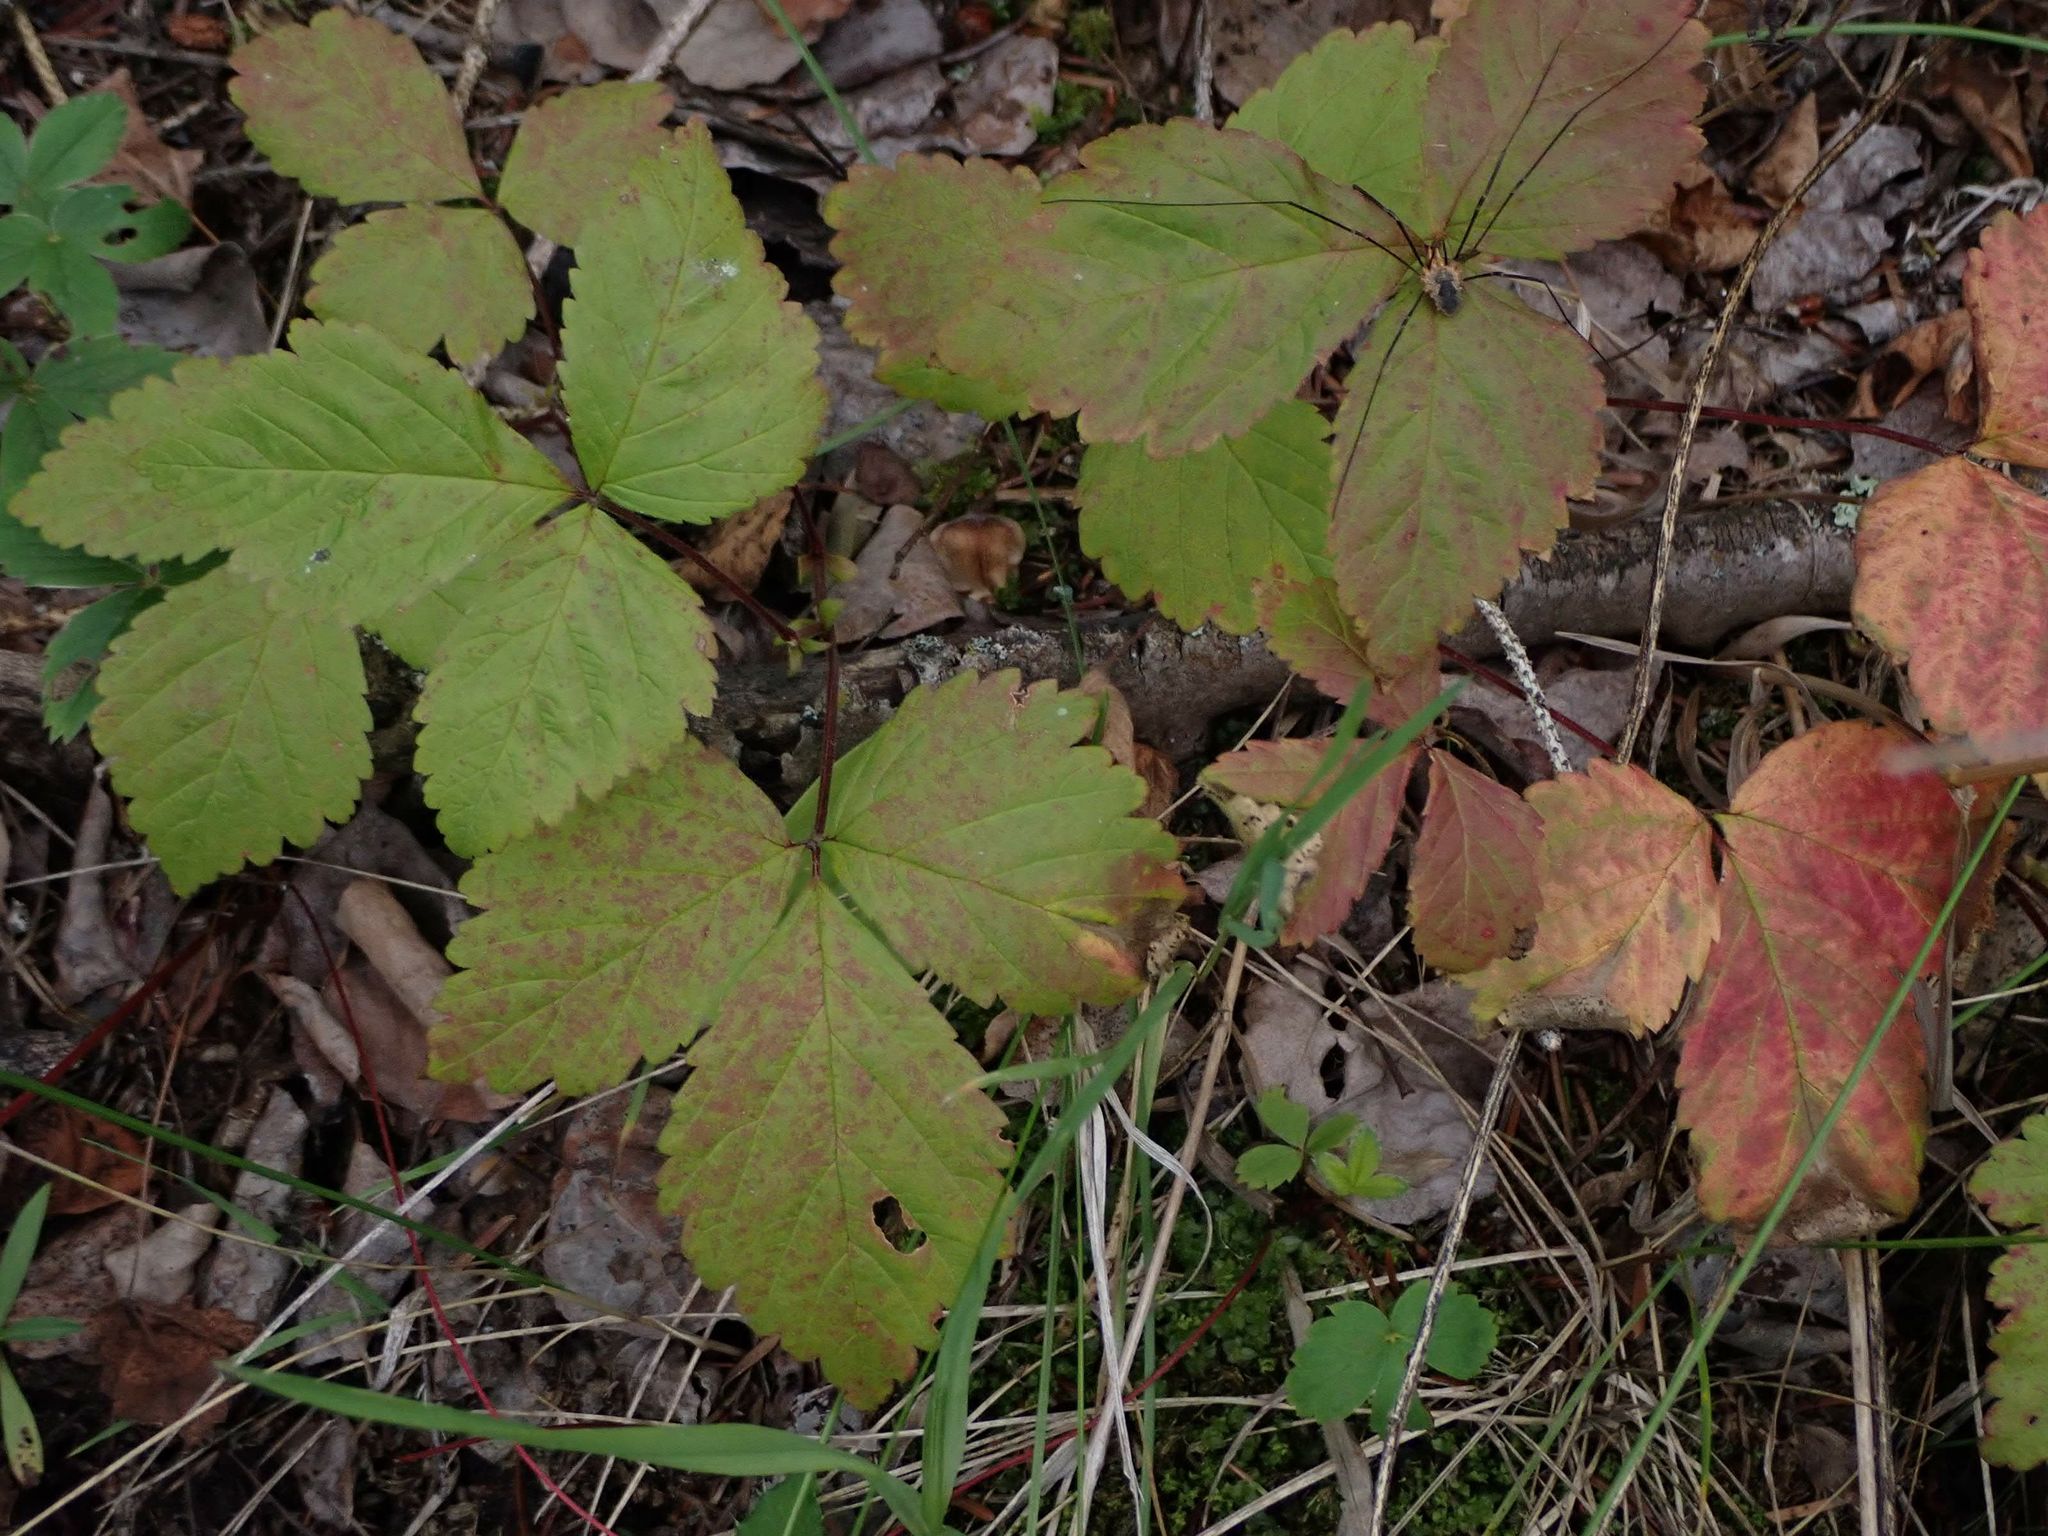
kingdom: Plantae
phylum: Tracheophyta
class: Magnoliopsida
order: Rosales
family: Rosaceae
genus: Rubus
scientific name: Rubus pubescens
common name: Dwarf raspberry
